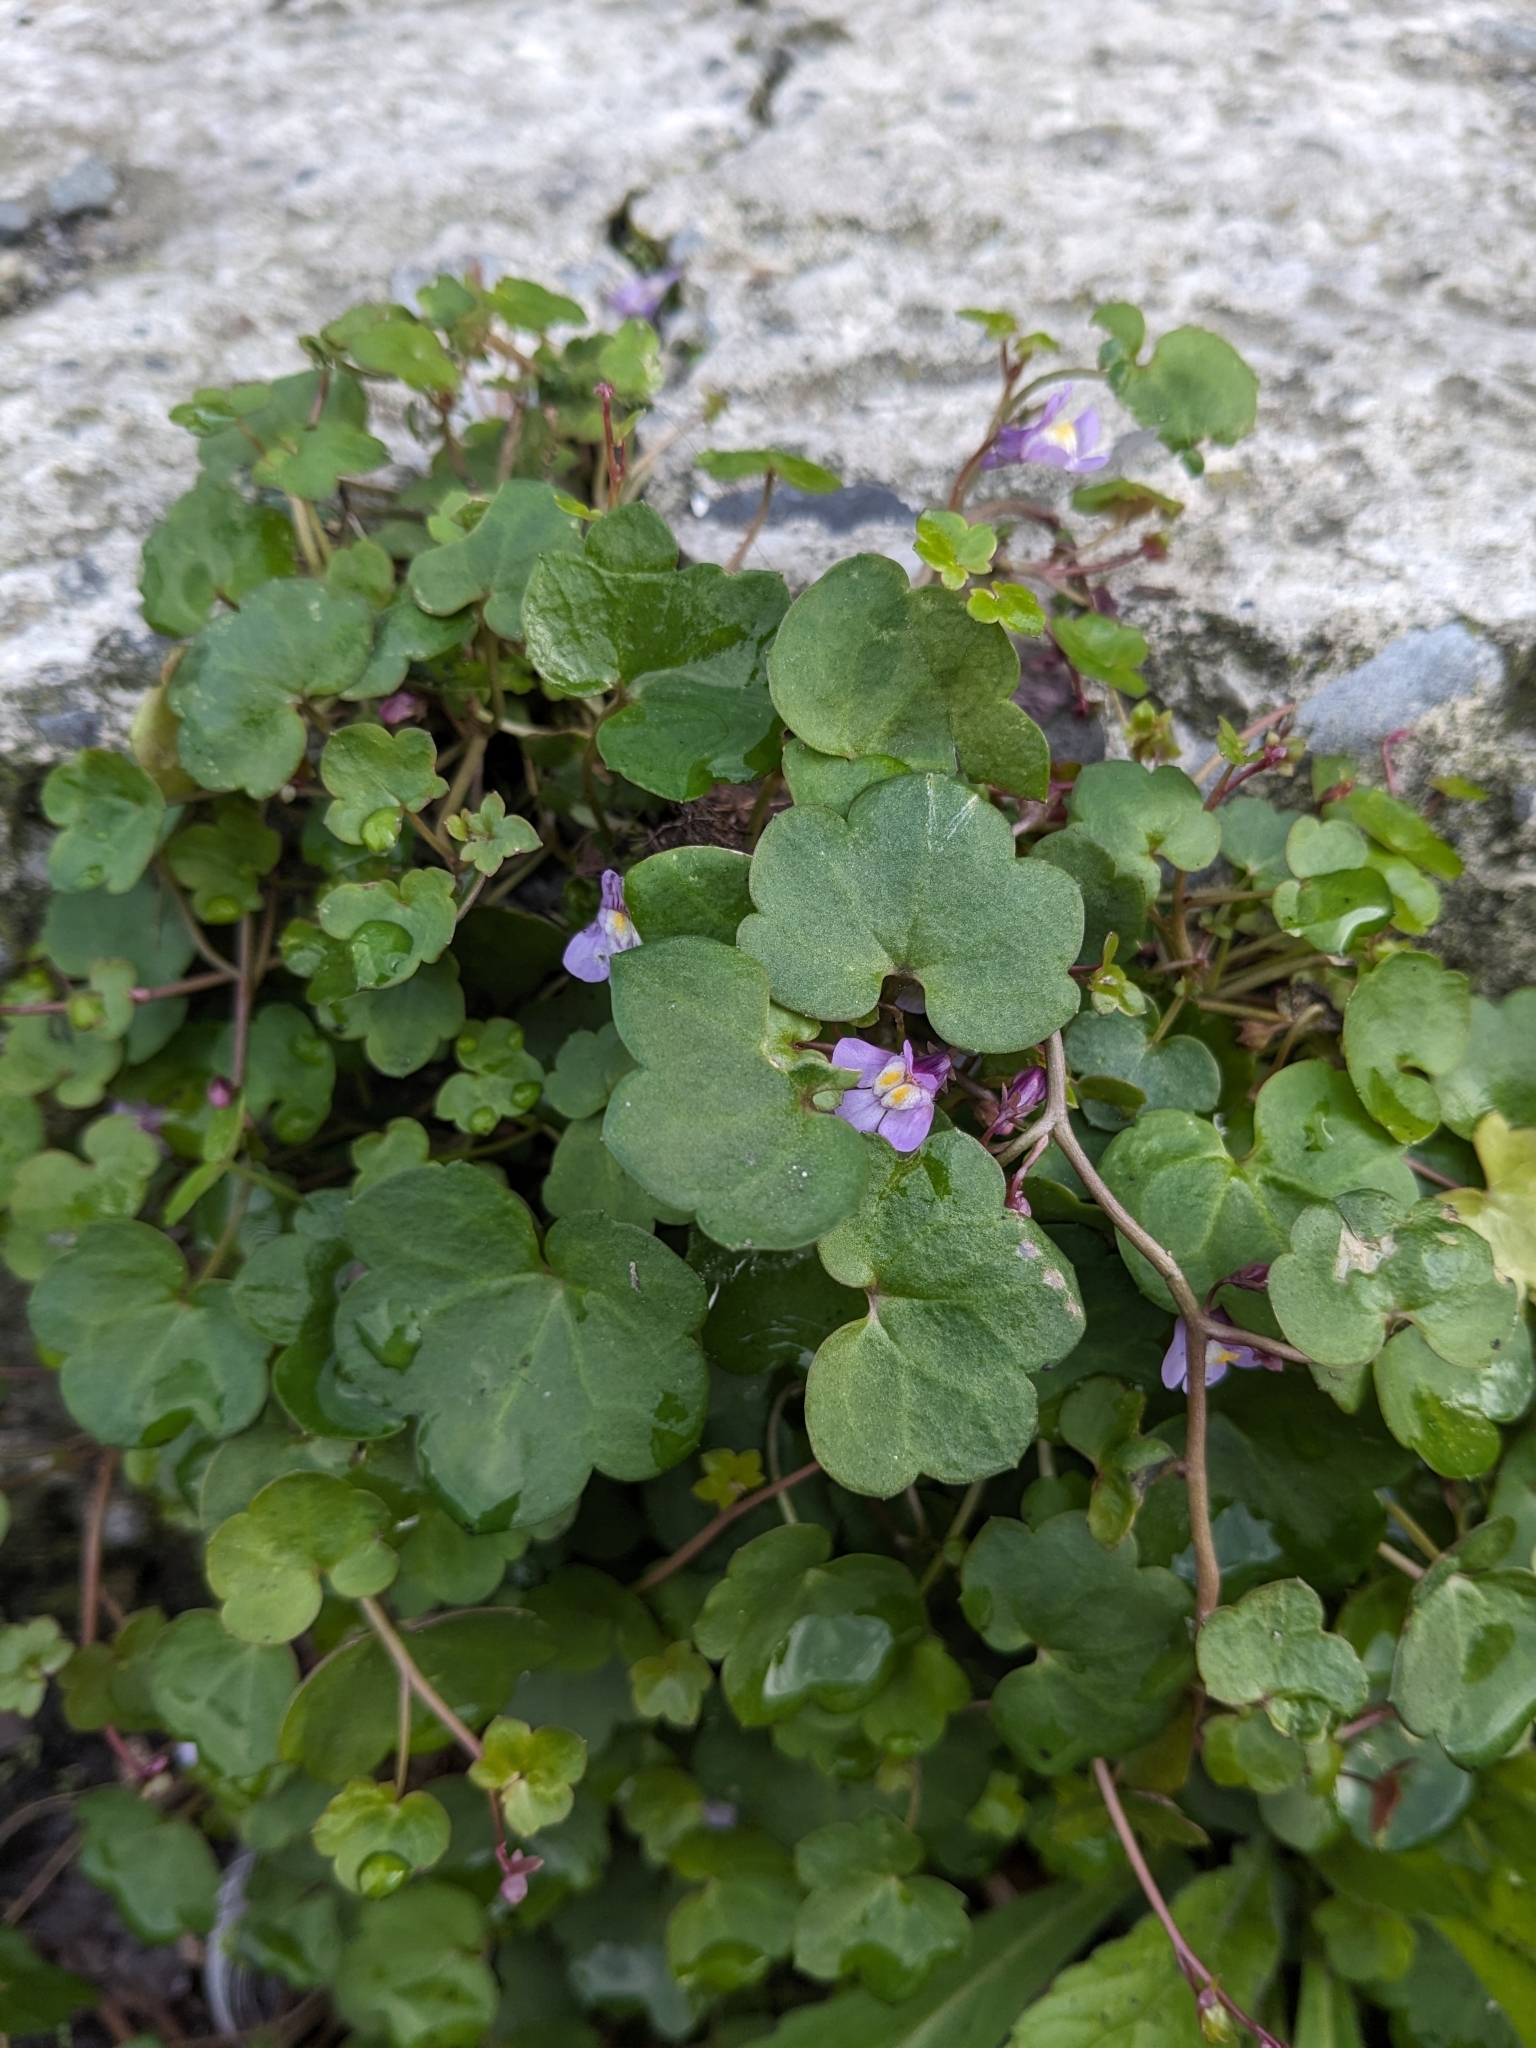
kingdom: Plantae
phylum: Tracheophyta
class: Magnoliopsida
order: Lamiales
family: Plantaginaceae
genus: Cymbalaria
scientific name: Cymbalaria muralis
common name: Ivy-leaved toadflax
